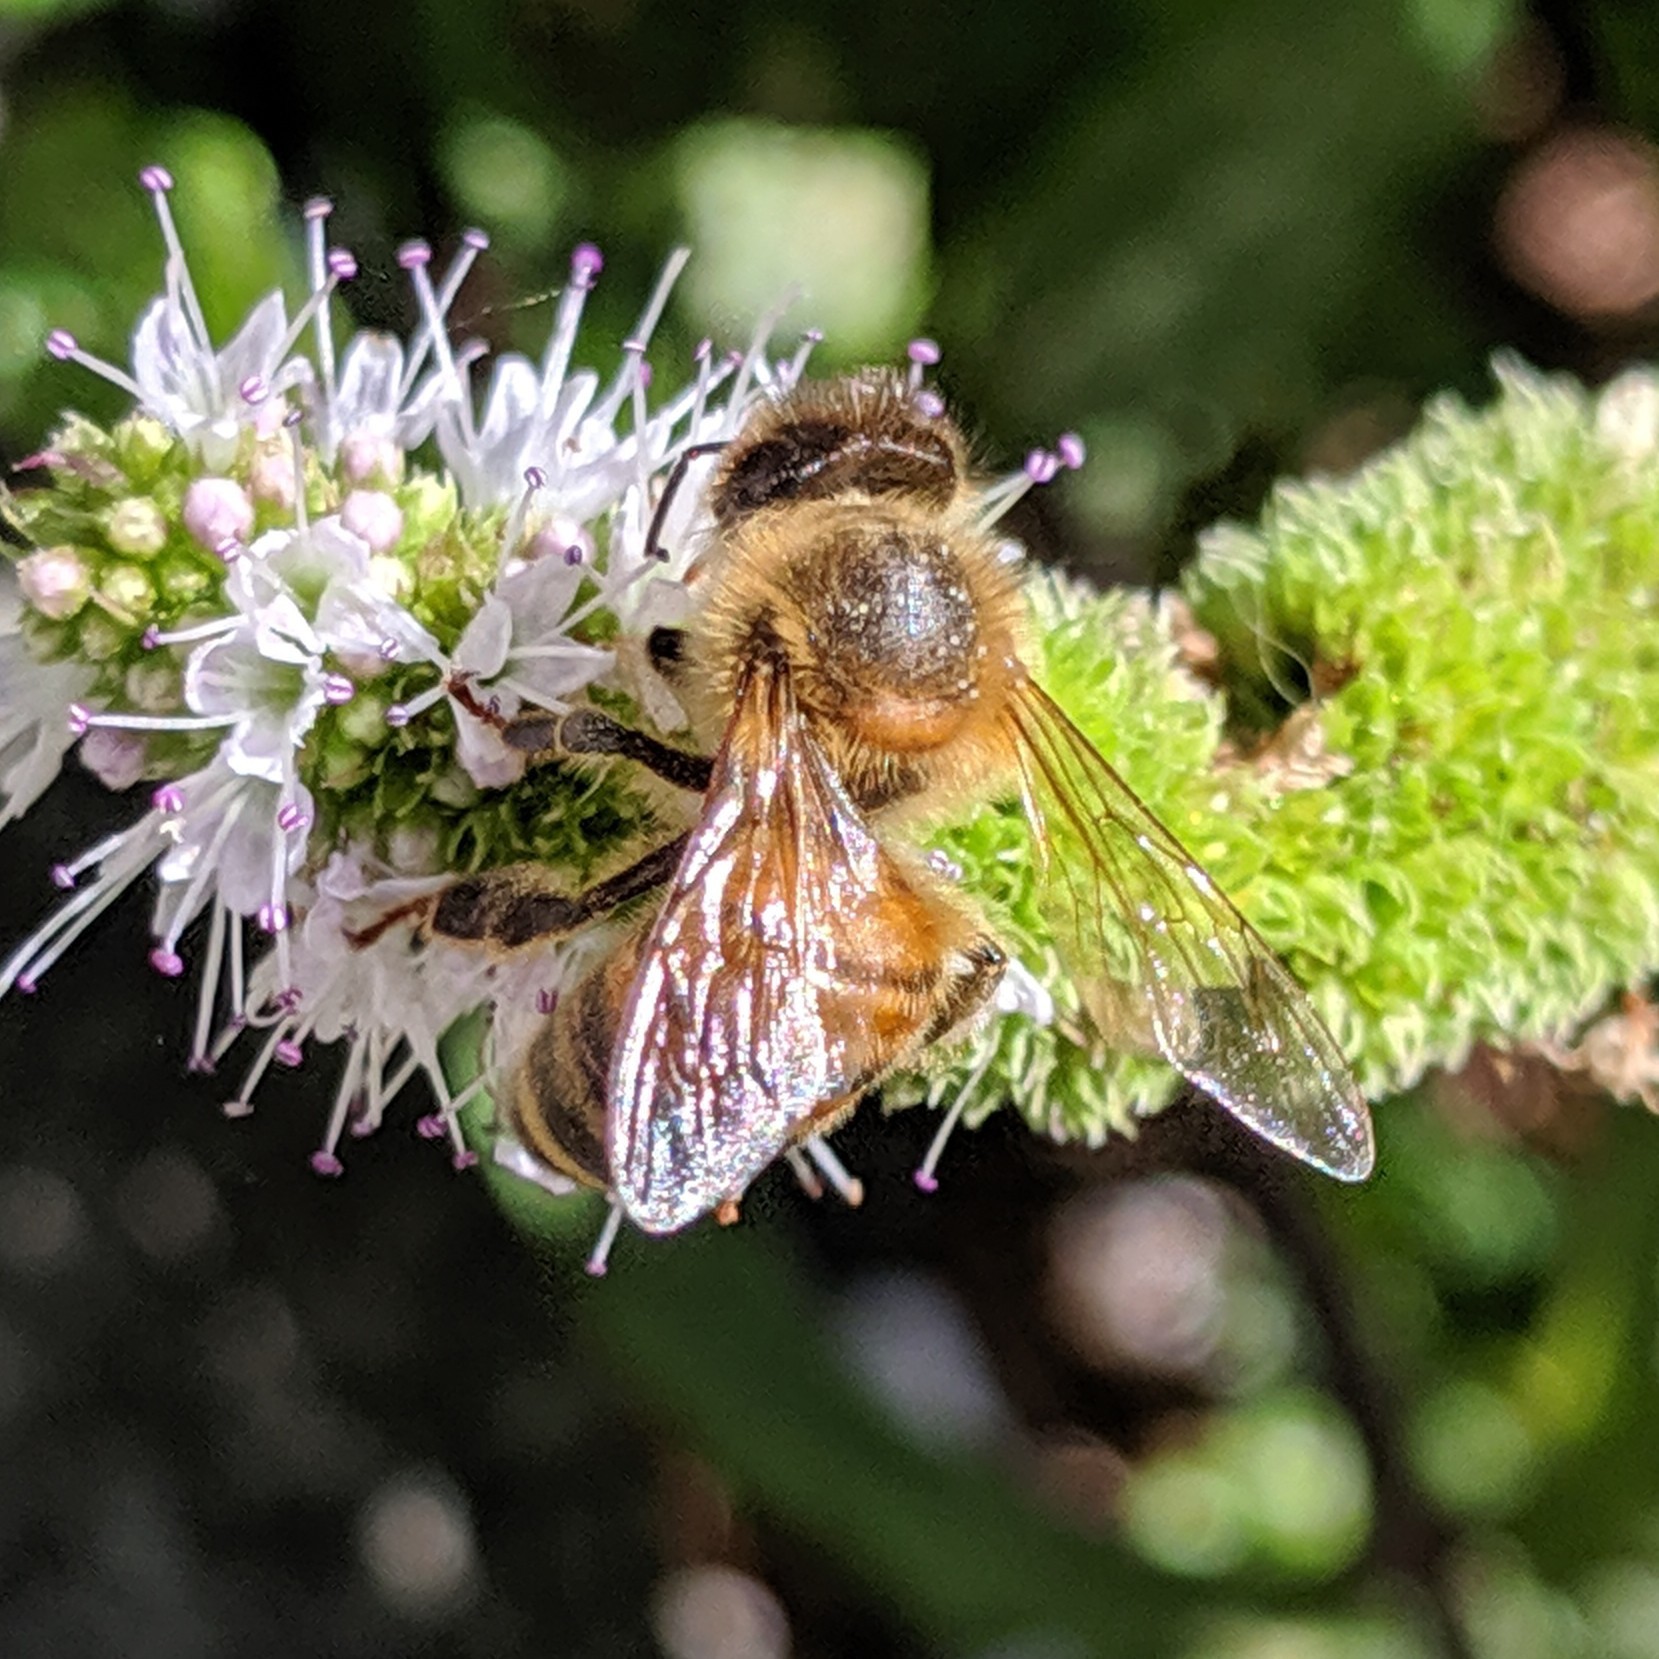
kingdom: Animalia
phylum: Arthropoda
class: Insecta
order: Hymenoptera
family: Apidae
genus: Apis
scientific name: Apis mellifera
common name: Honey bee
